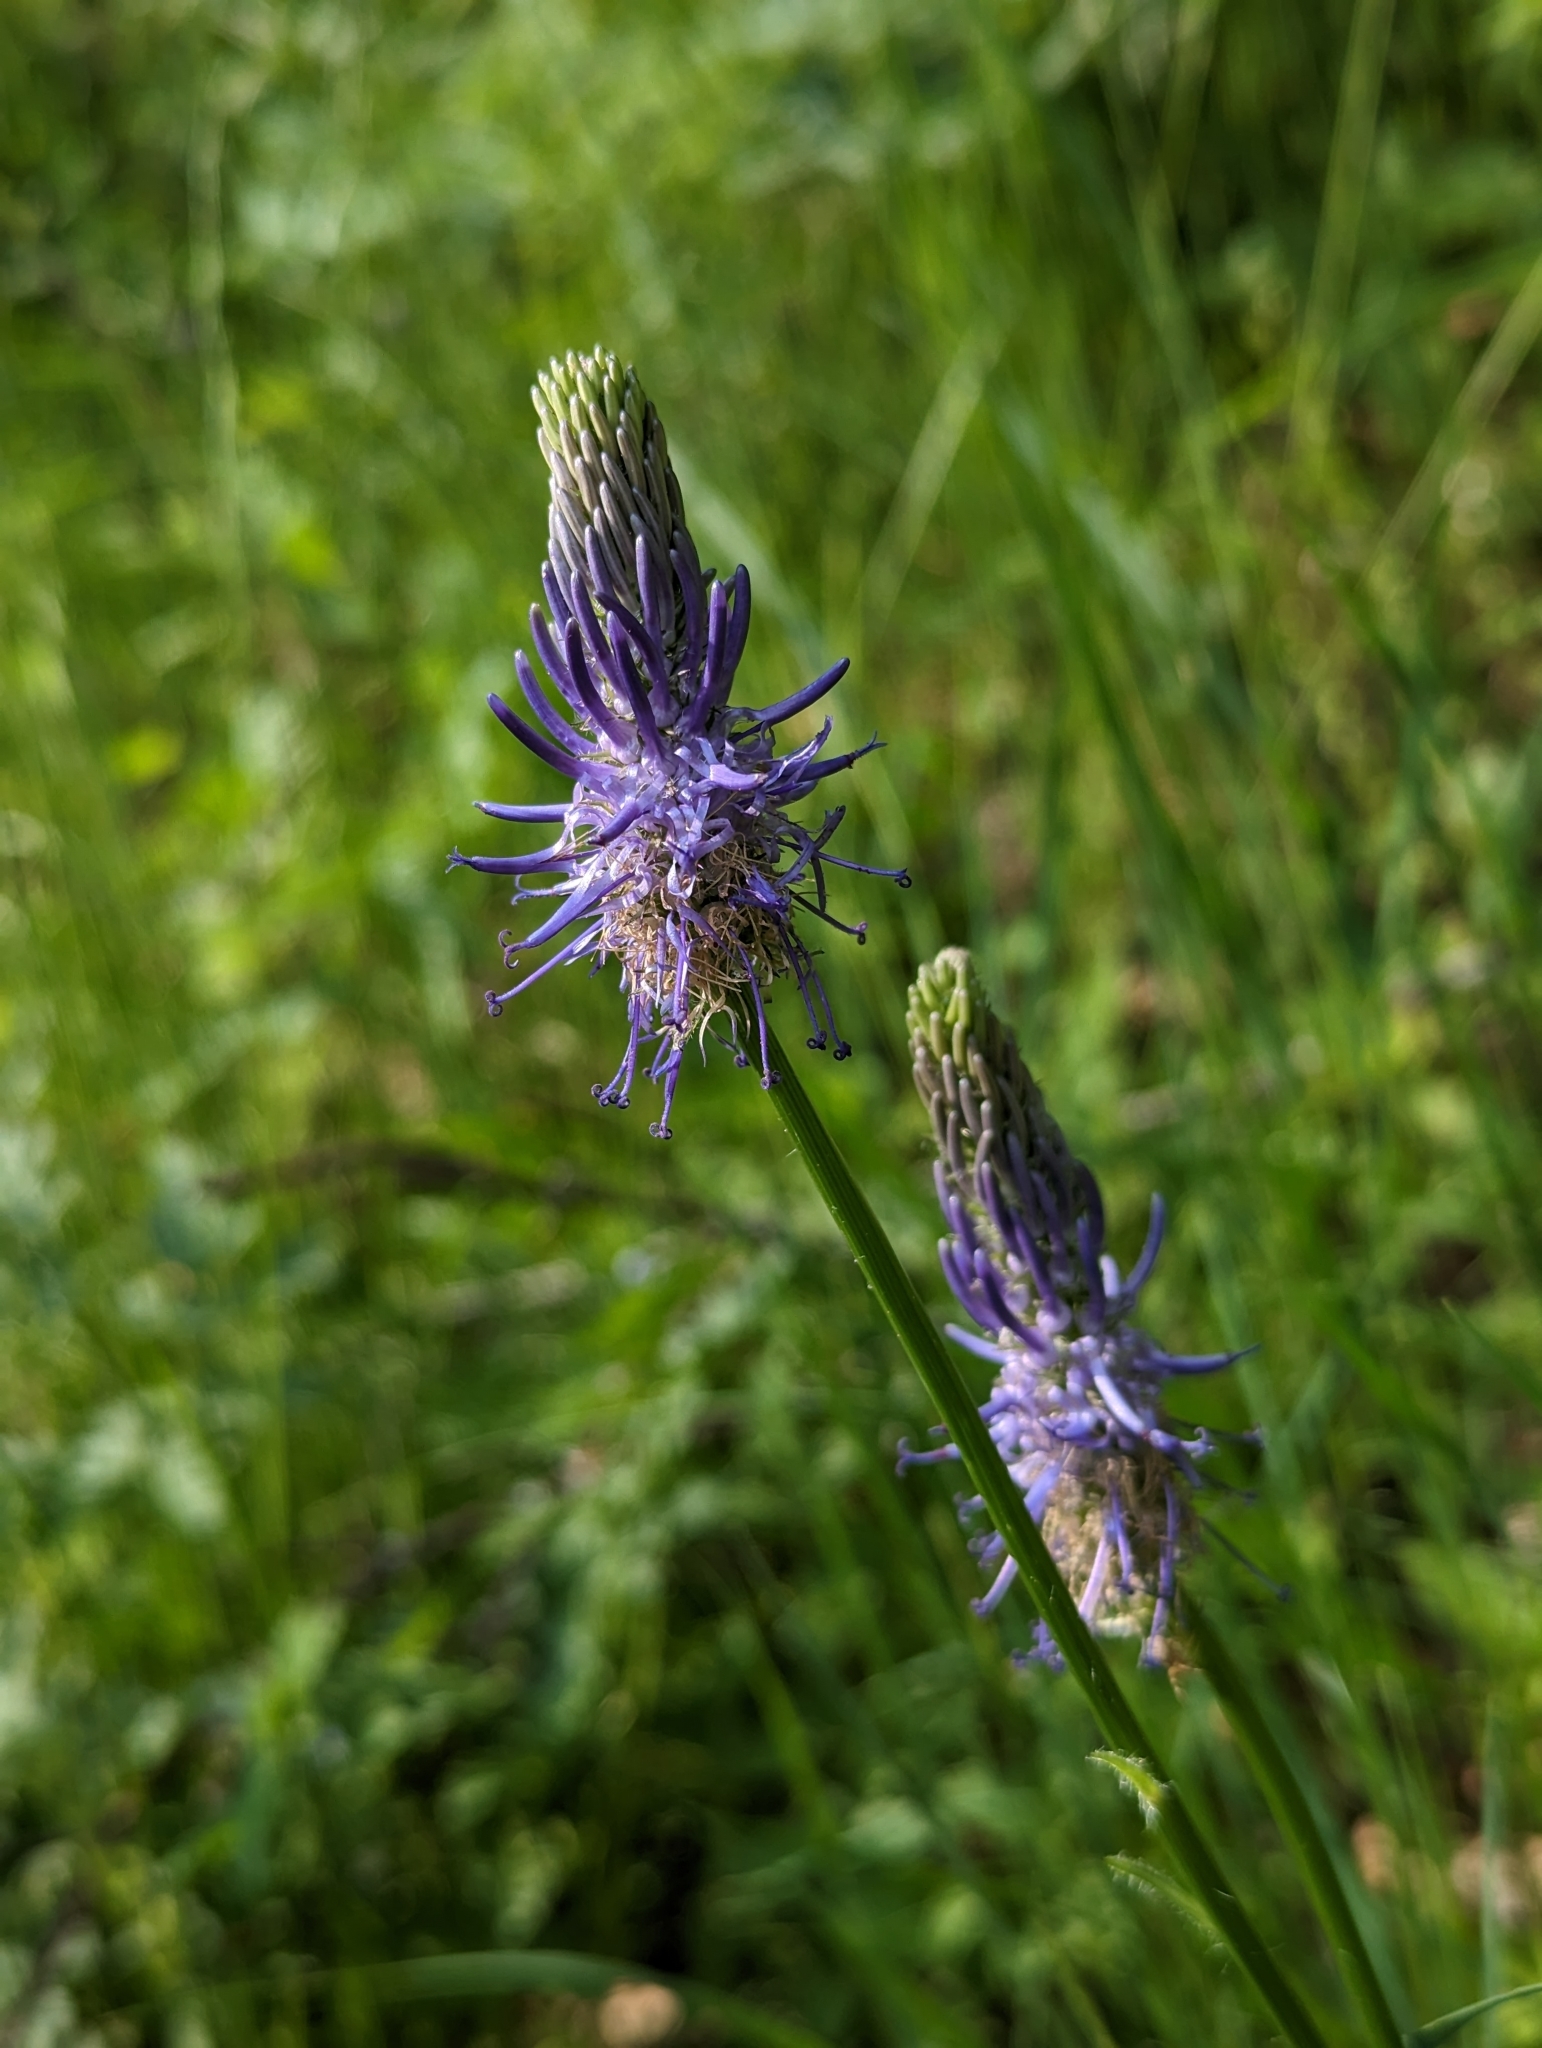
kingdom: Plantae
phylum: Tracheophyta
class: Magnoliopsida
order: Asterales
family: Campanulaceae
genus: Phyteuma
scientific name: Phyteuma betonicifolium
